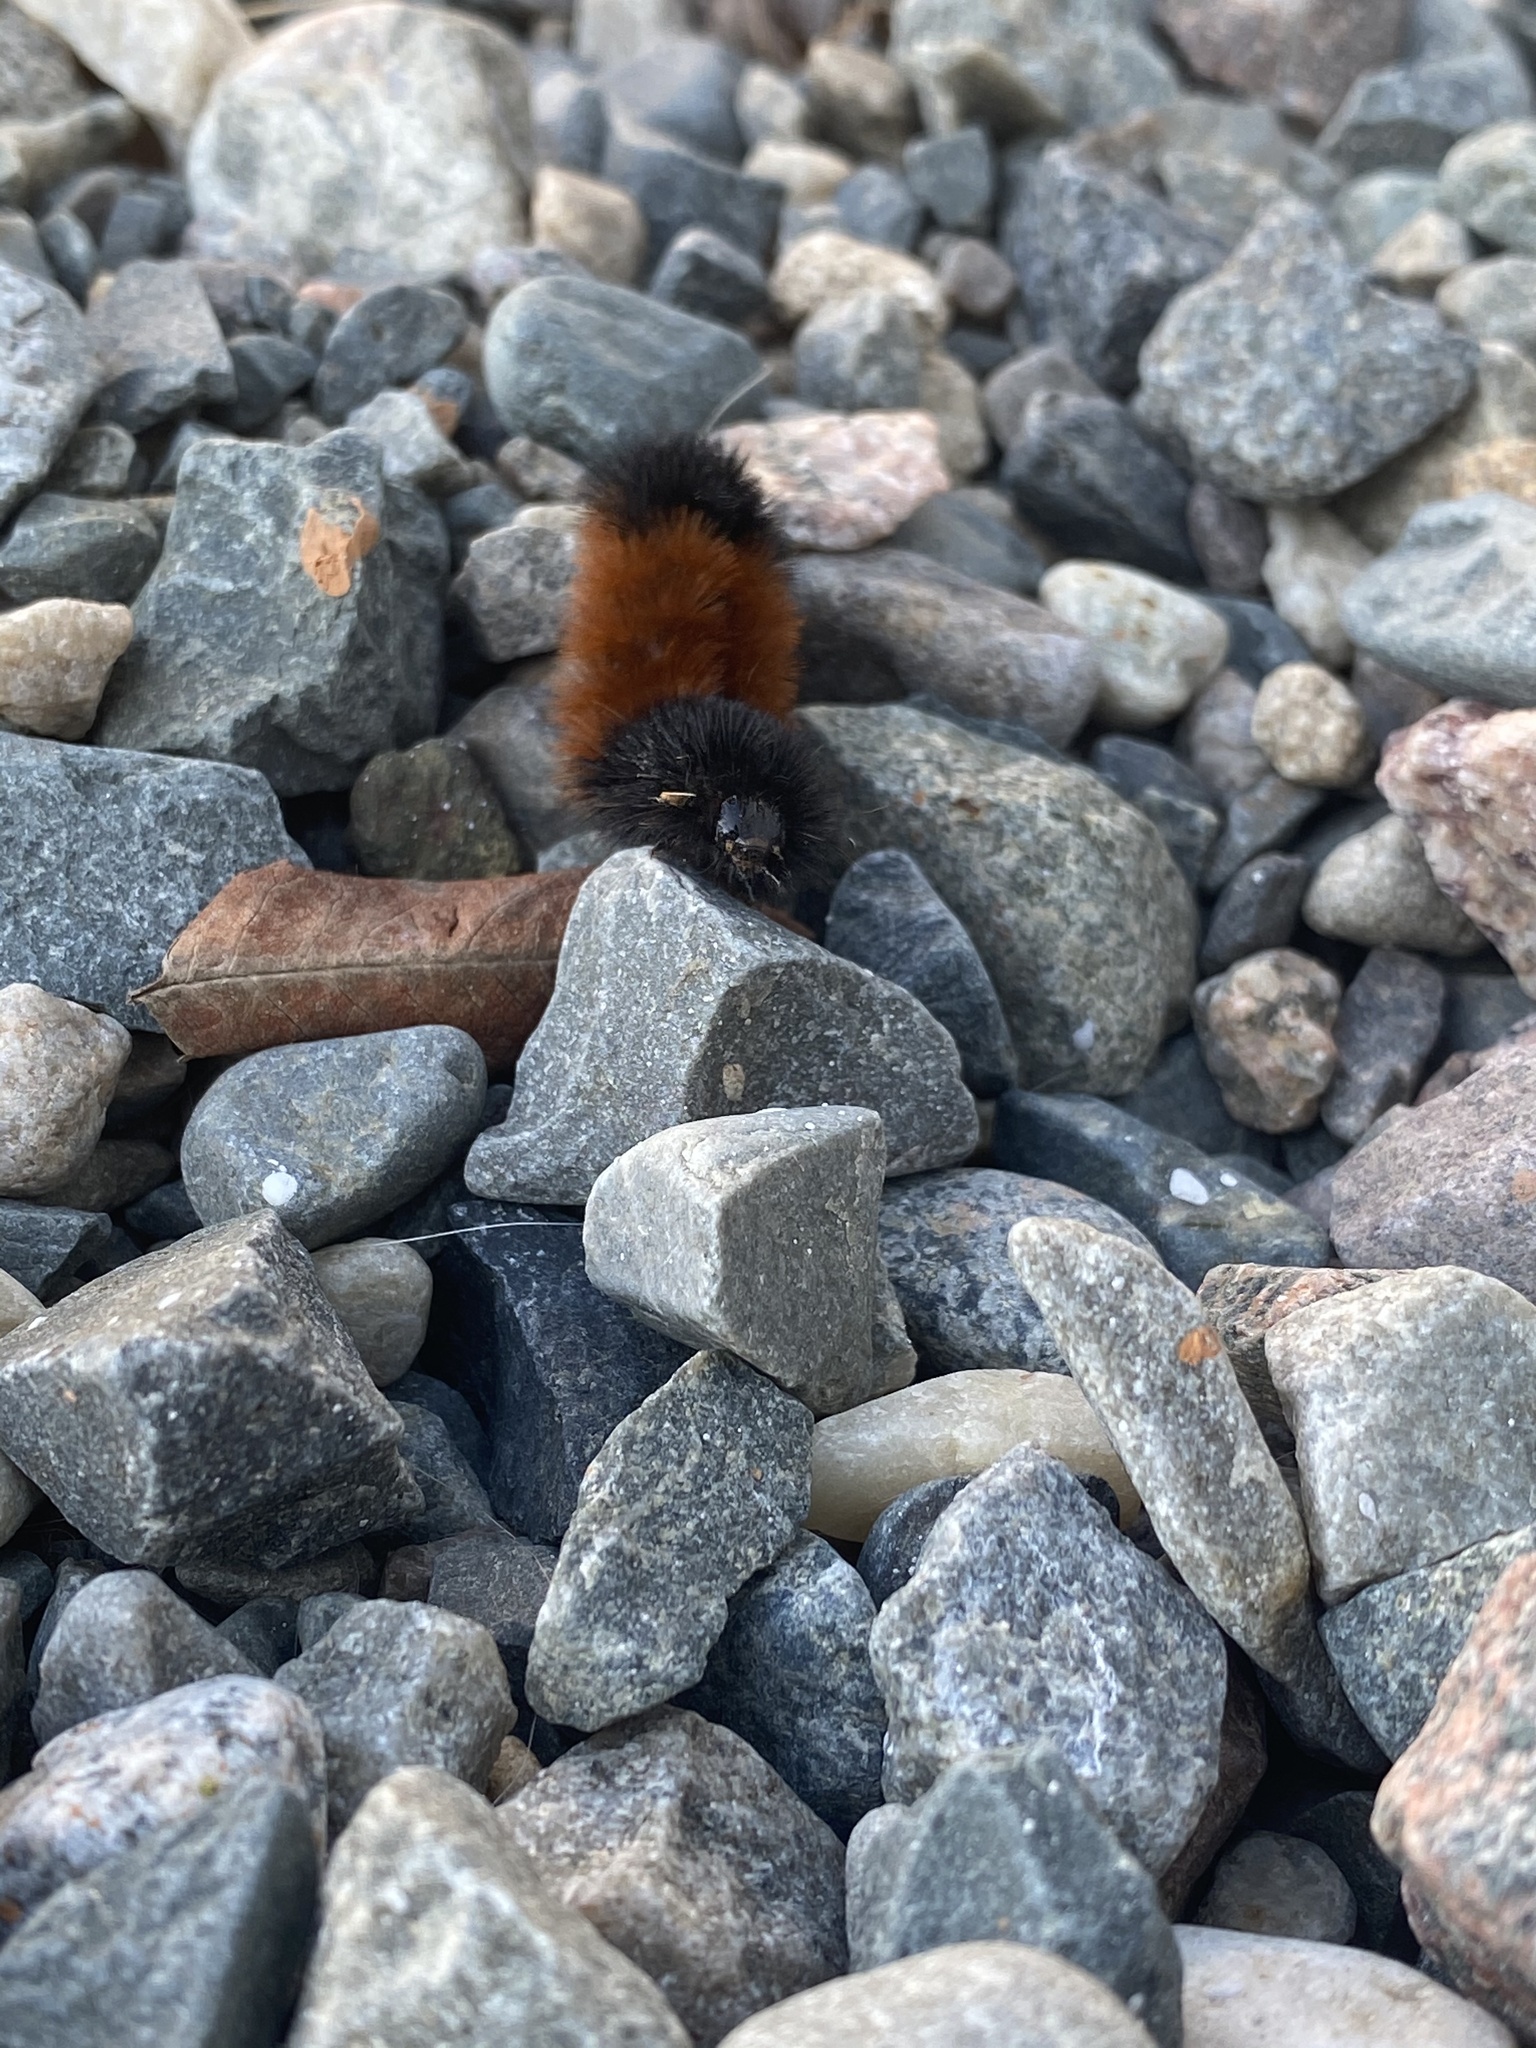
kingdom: Animalia
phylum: Arthropoda
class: Insecta
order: Lepidoptera
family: Erebidae
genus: Pyrrharctia
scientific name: Pyrrharctia isabella
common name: Isabella tiger moth
